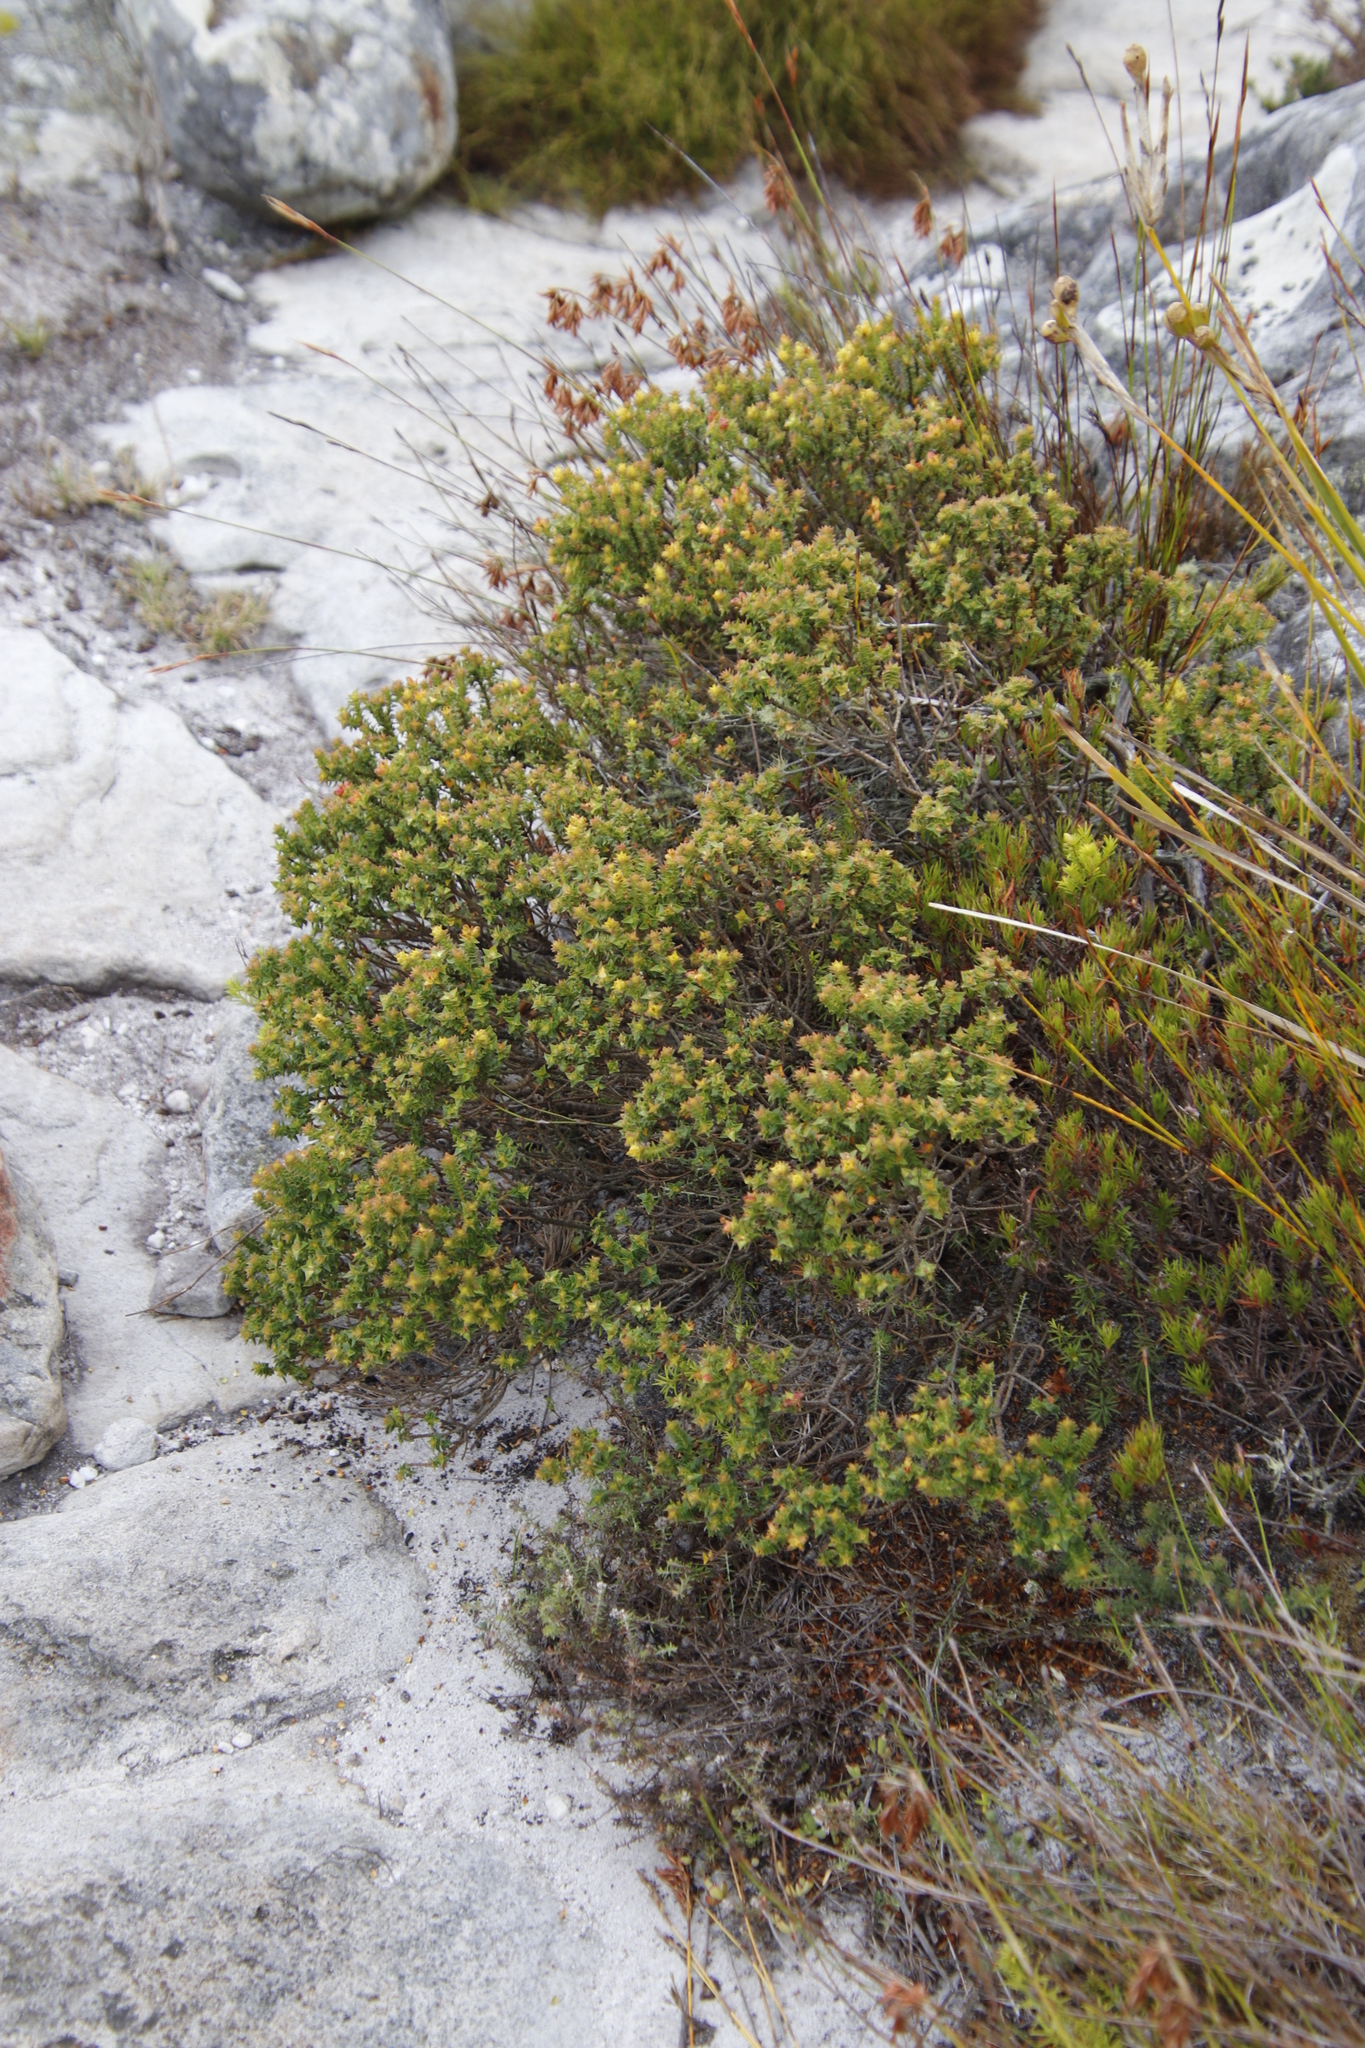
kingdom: Plantae
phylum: Tracheophyta
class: Magnoliopsida
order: Myrtales
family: Penaeaceae
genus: Penaea
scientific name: Penaea mucronata
